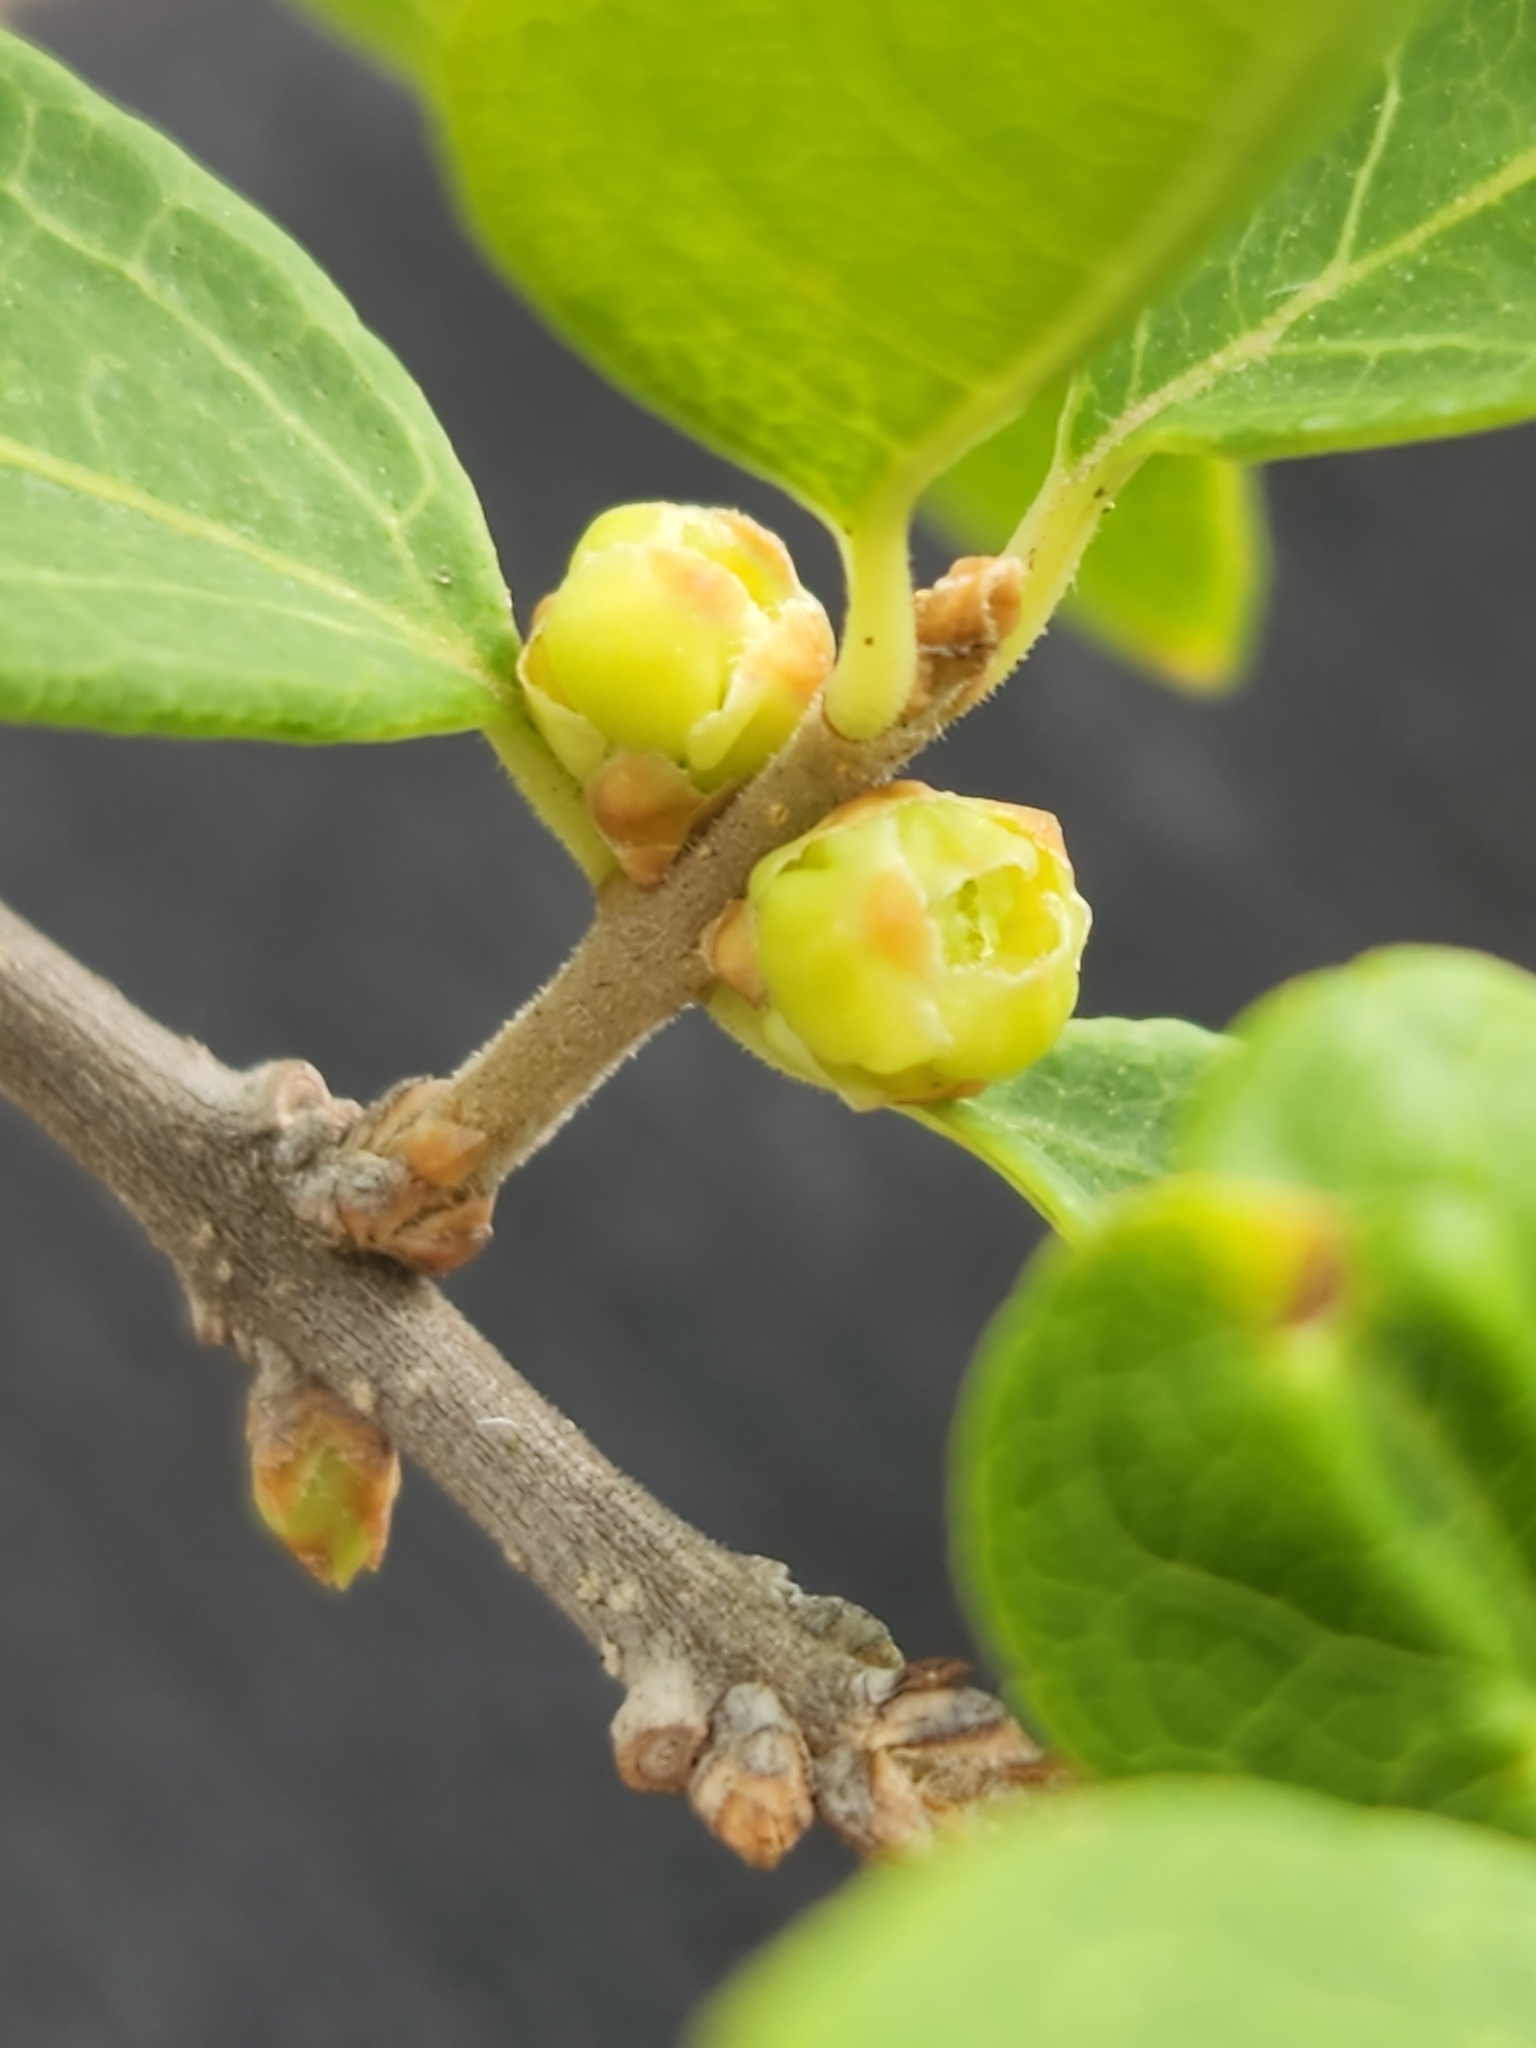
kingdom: Plantae
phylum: Tracheophyta
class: Magnoliopsida
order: Lamiales
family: Oleaceae
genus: Forestiera
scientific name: Forestiera reticulata
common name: Netleaf swamp-privet
